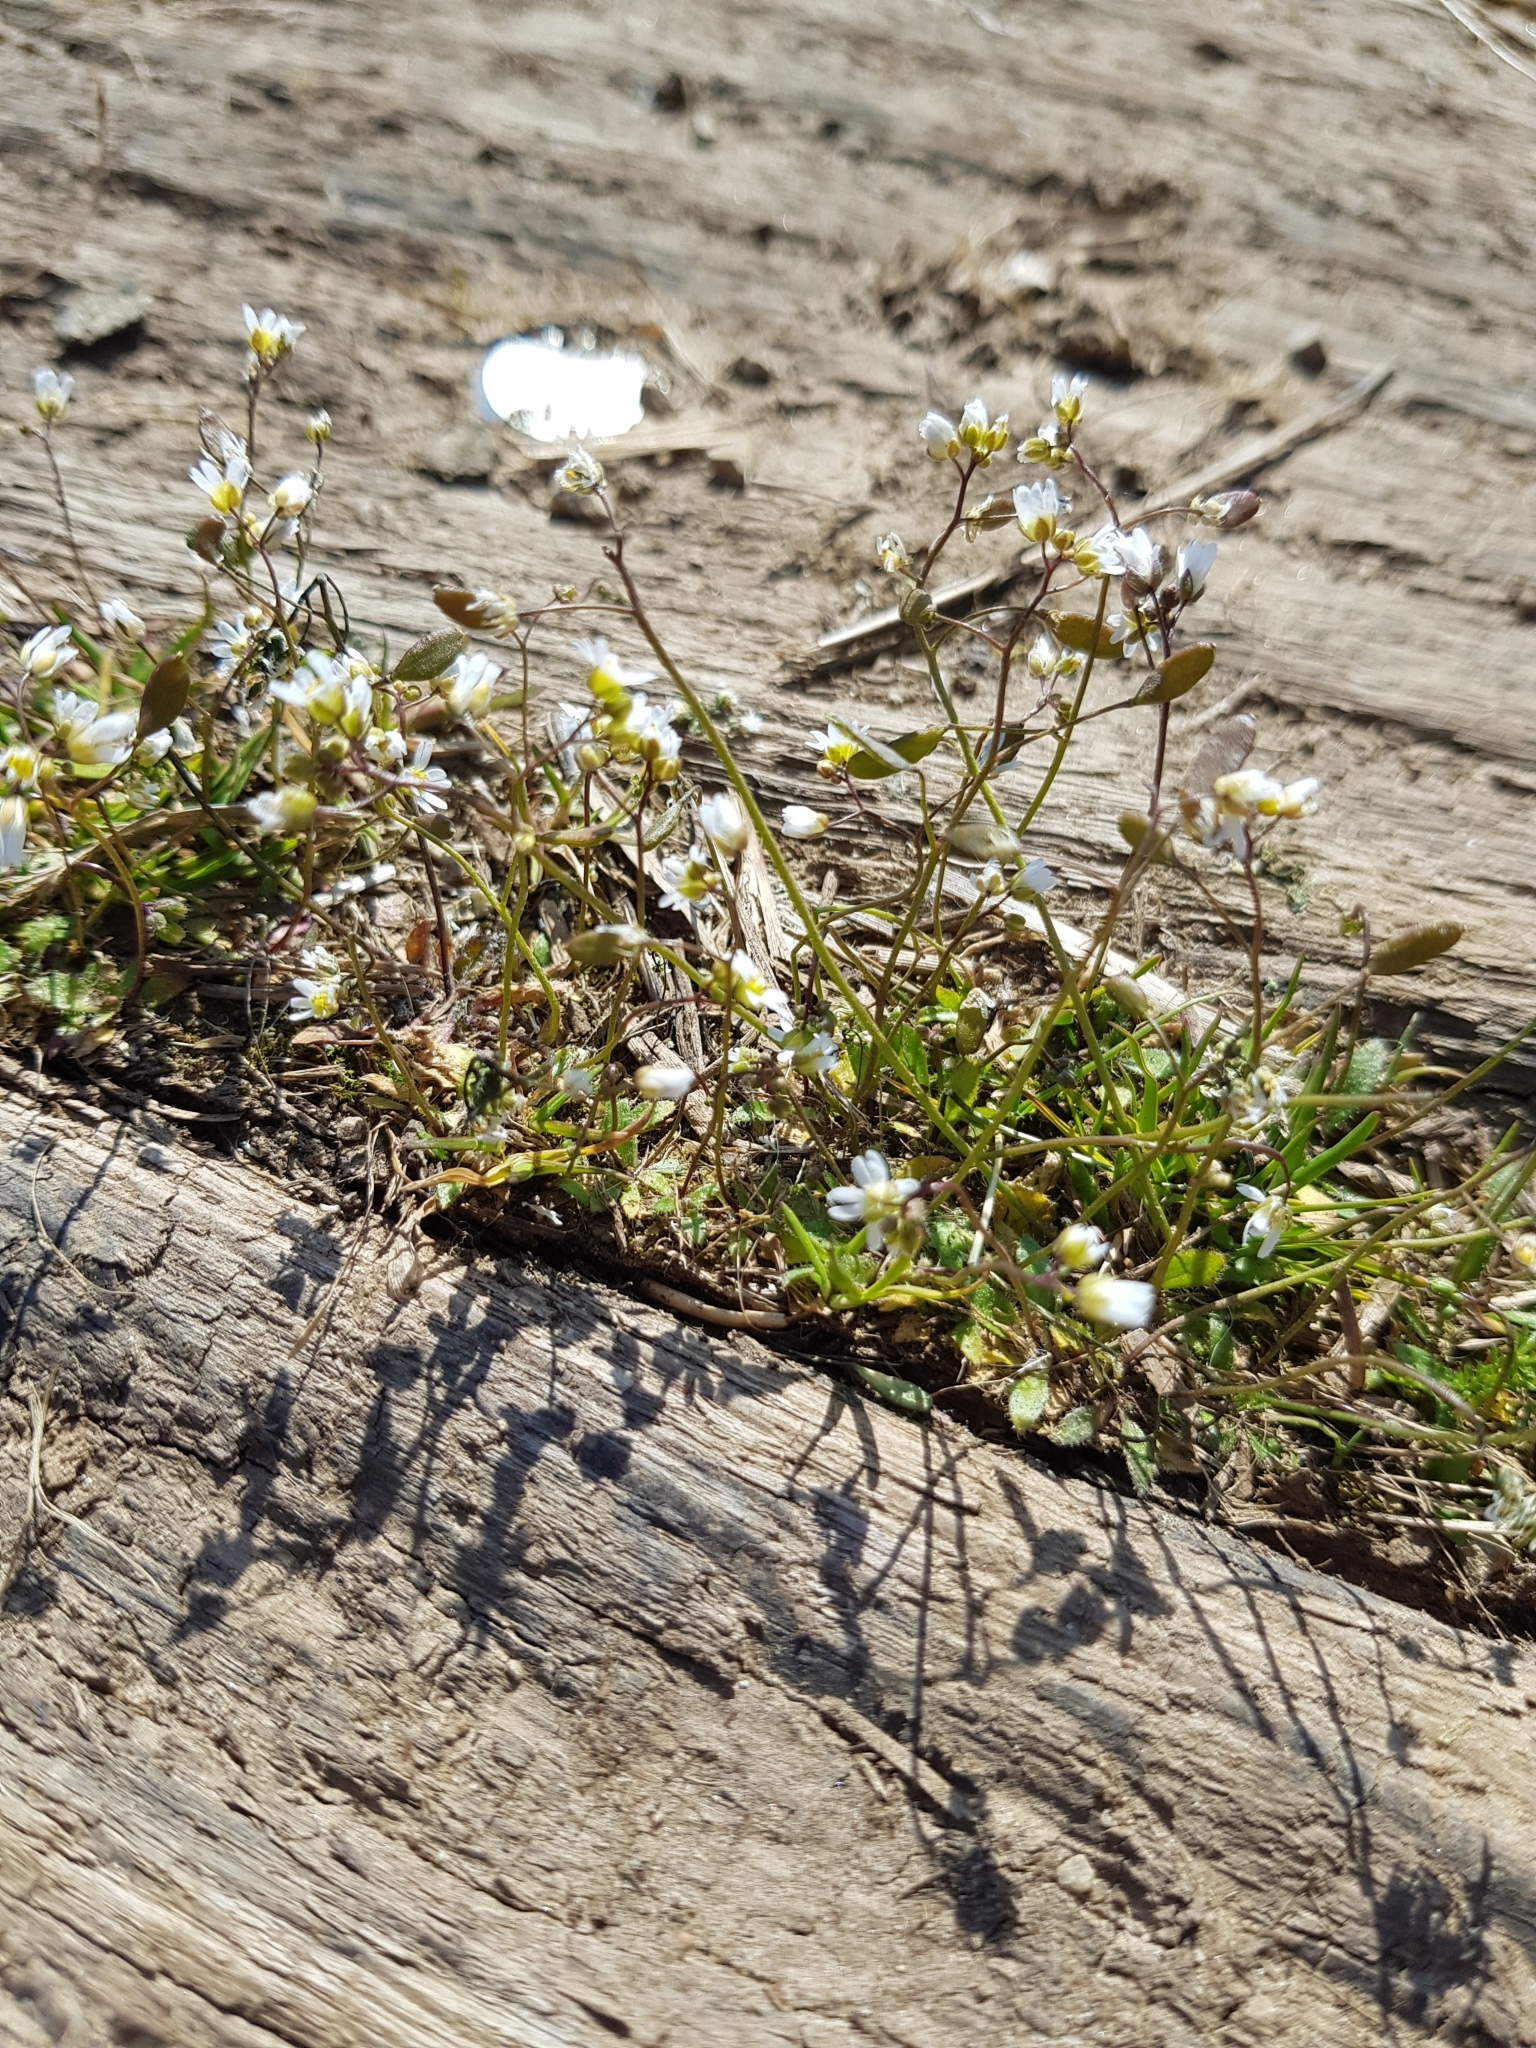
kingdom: Plantae
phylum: Tracheophyta
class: Magnoliopsida
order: Brassicales
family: Brassicaceae
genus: Draba
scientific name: Draba verna
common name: Spring draba
